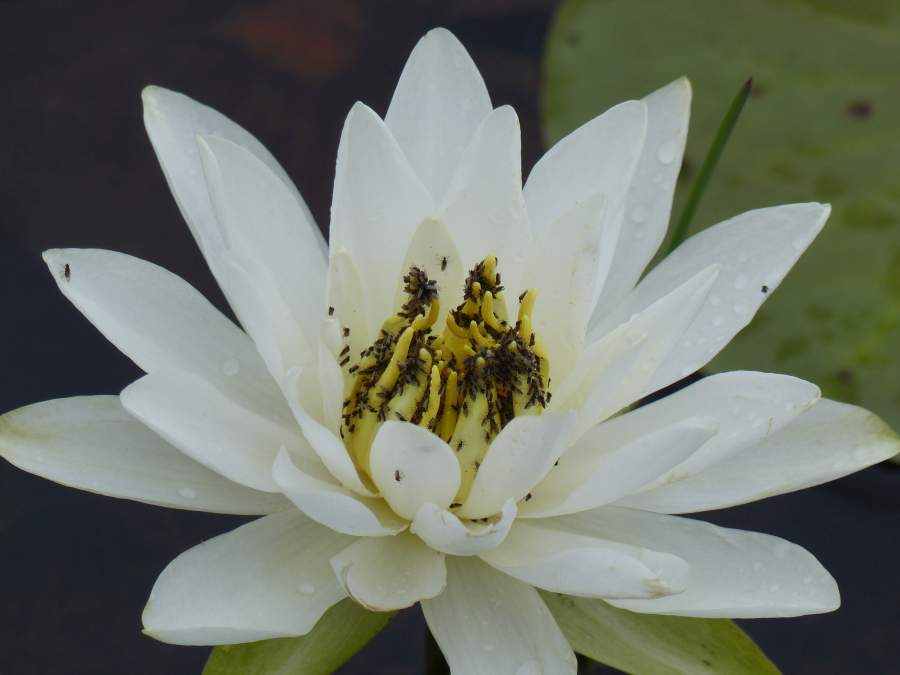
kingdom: Plantae
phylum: Tracheophyta
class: Magnoliopsida
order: Nymphaeales
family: Nymphaeaceae
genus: Nymphaea
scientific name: Nymphaea odorata
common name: Fragrant water-lily
